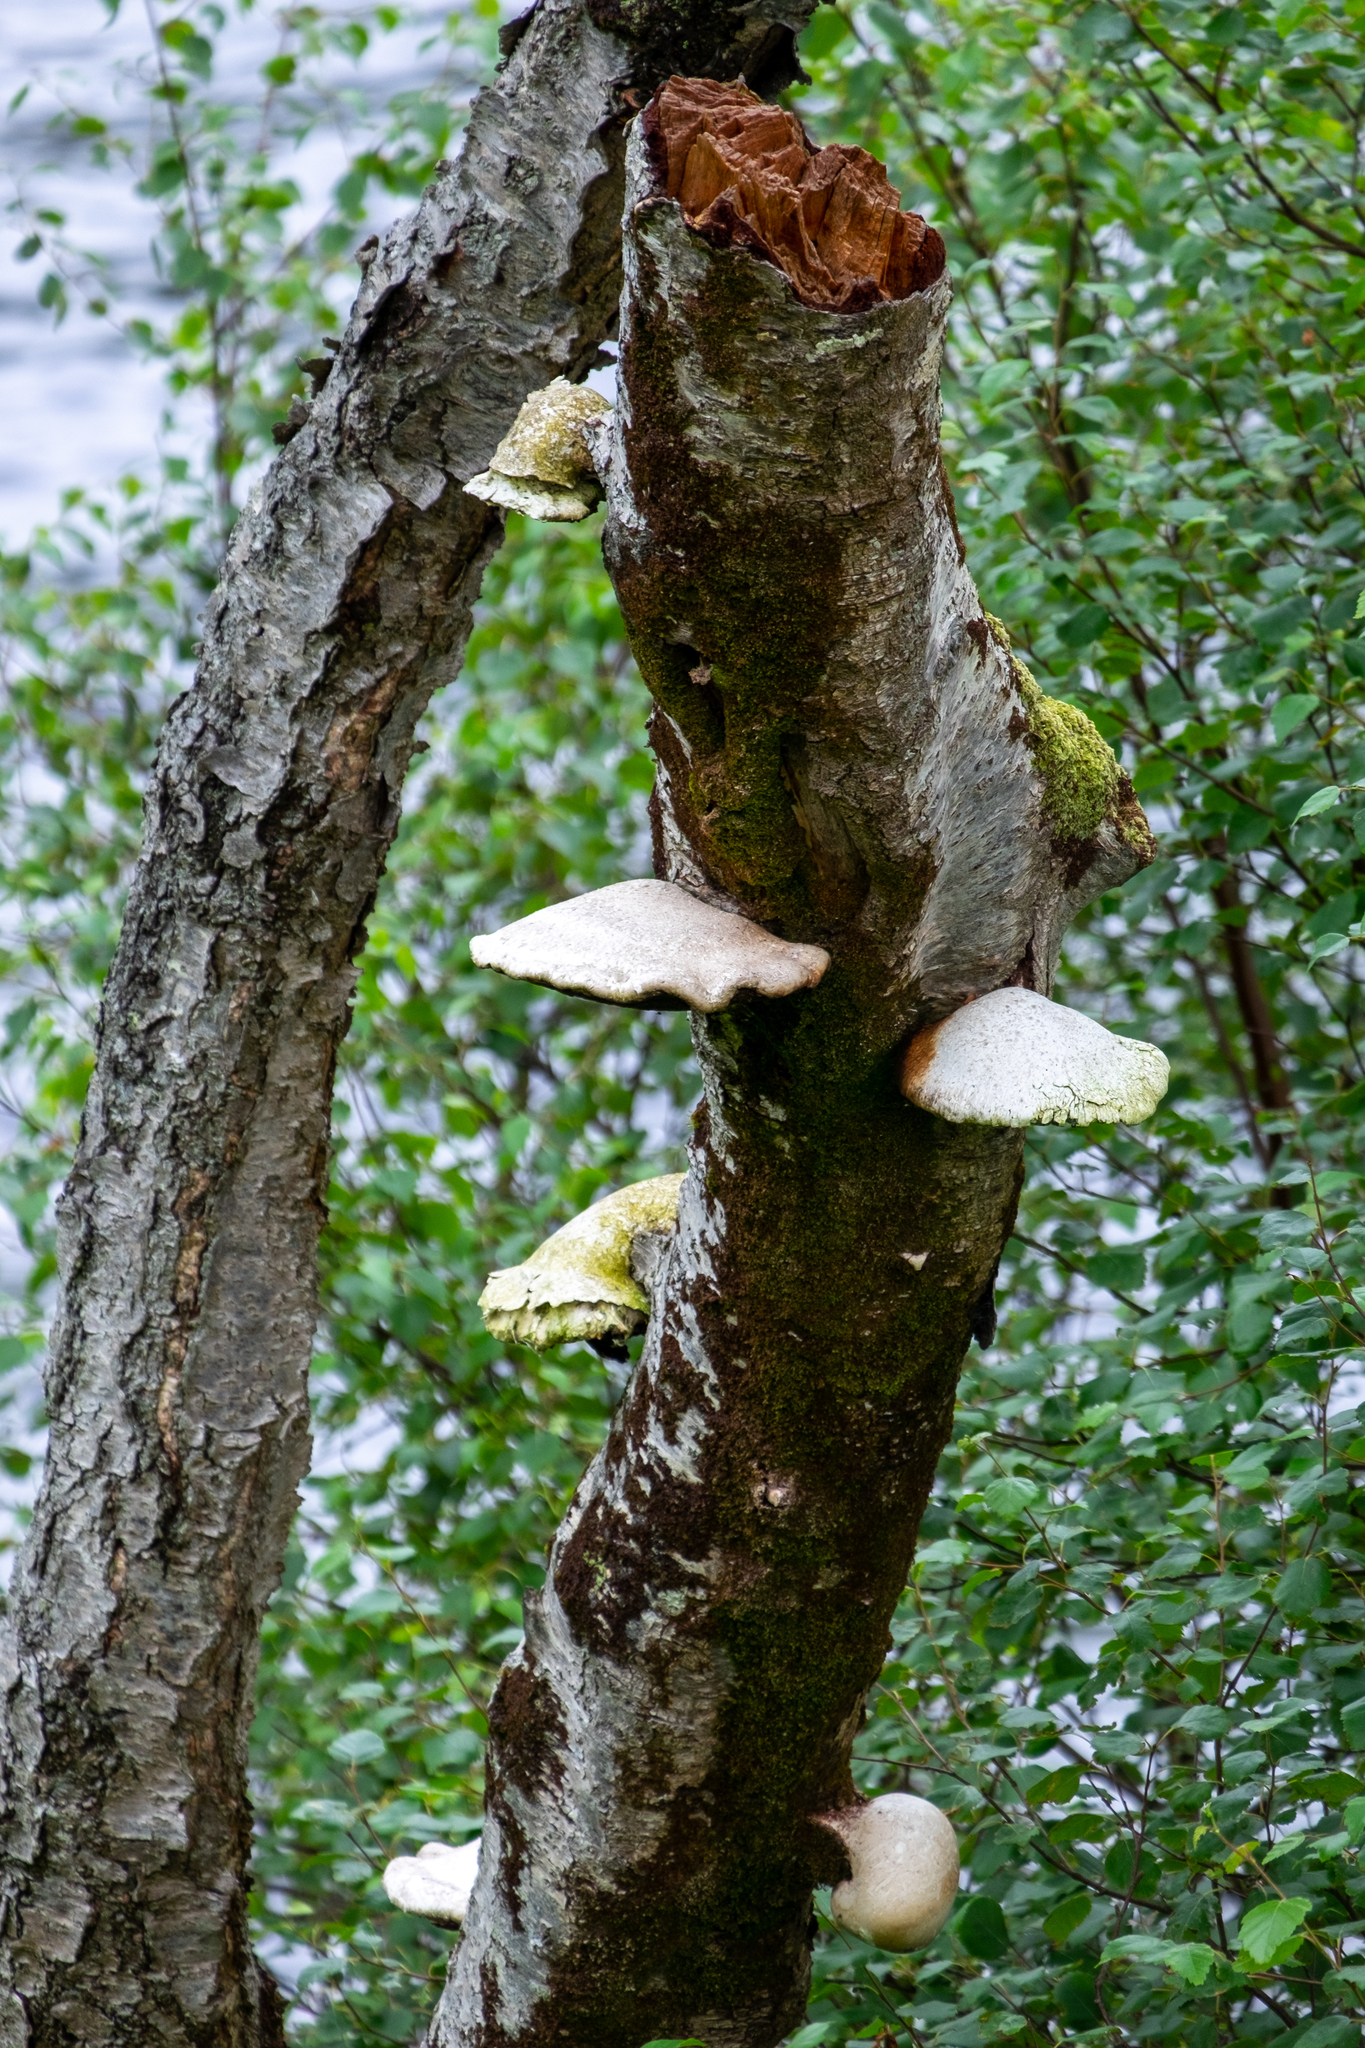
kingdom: Fungi
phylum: Basidiomycota
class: Agaricomycetes
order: Polyporales
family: Fomitopsidaceae
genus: Fomitopsis
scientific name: Fomitopsis betulina
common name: Birch polypore
